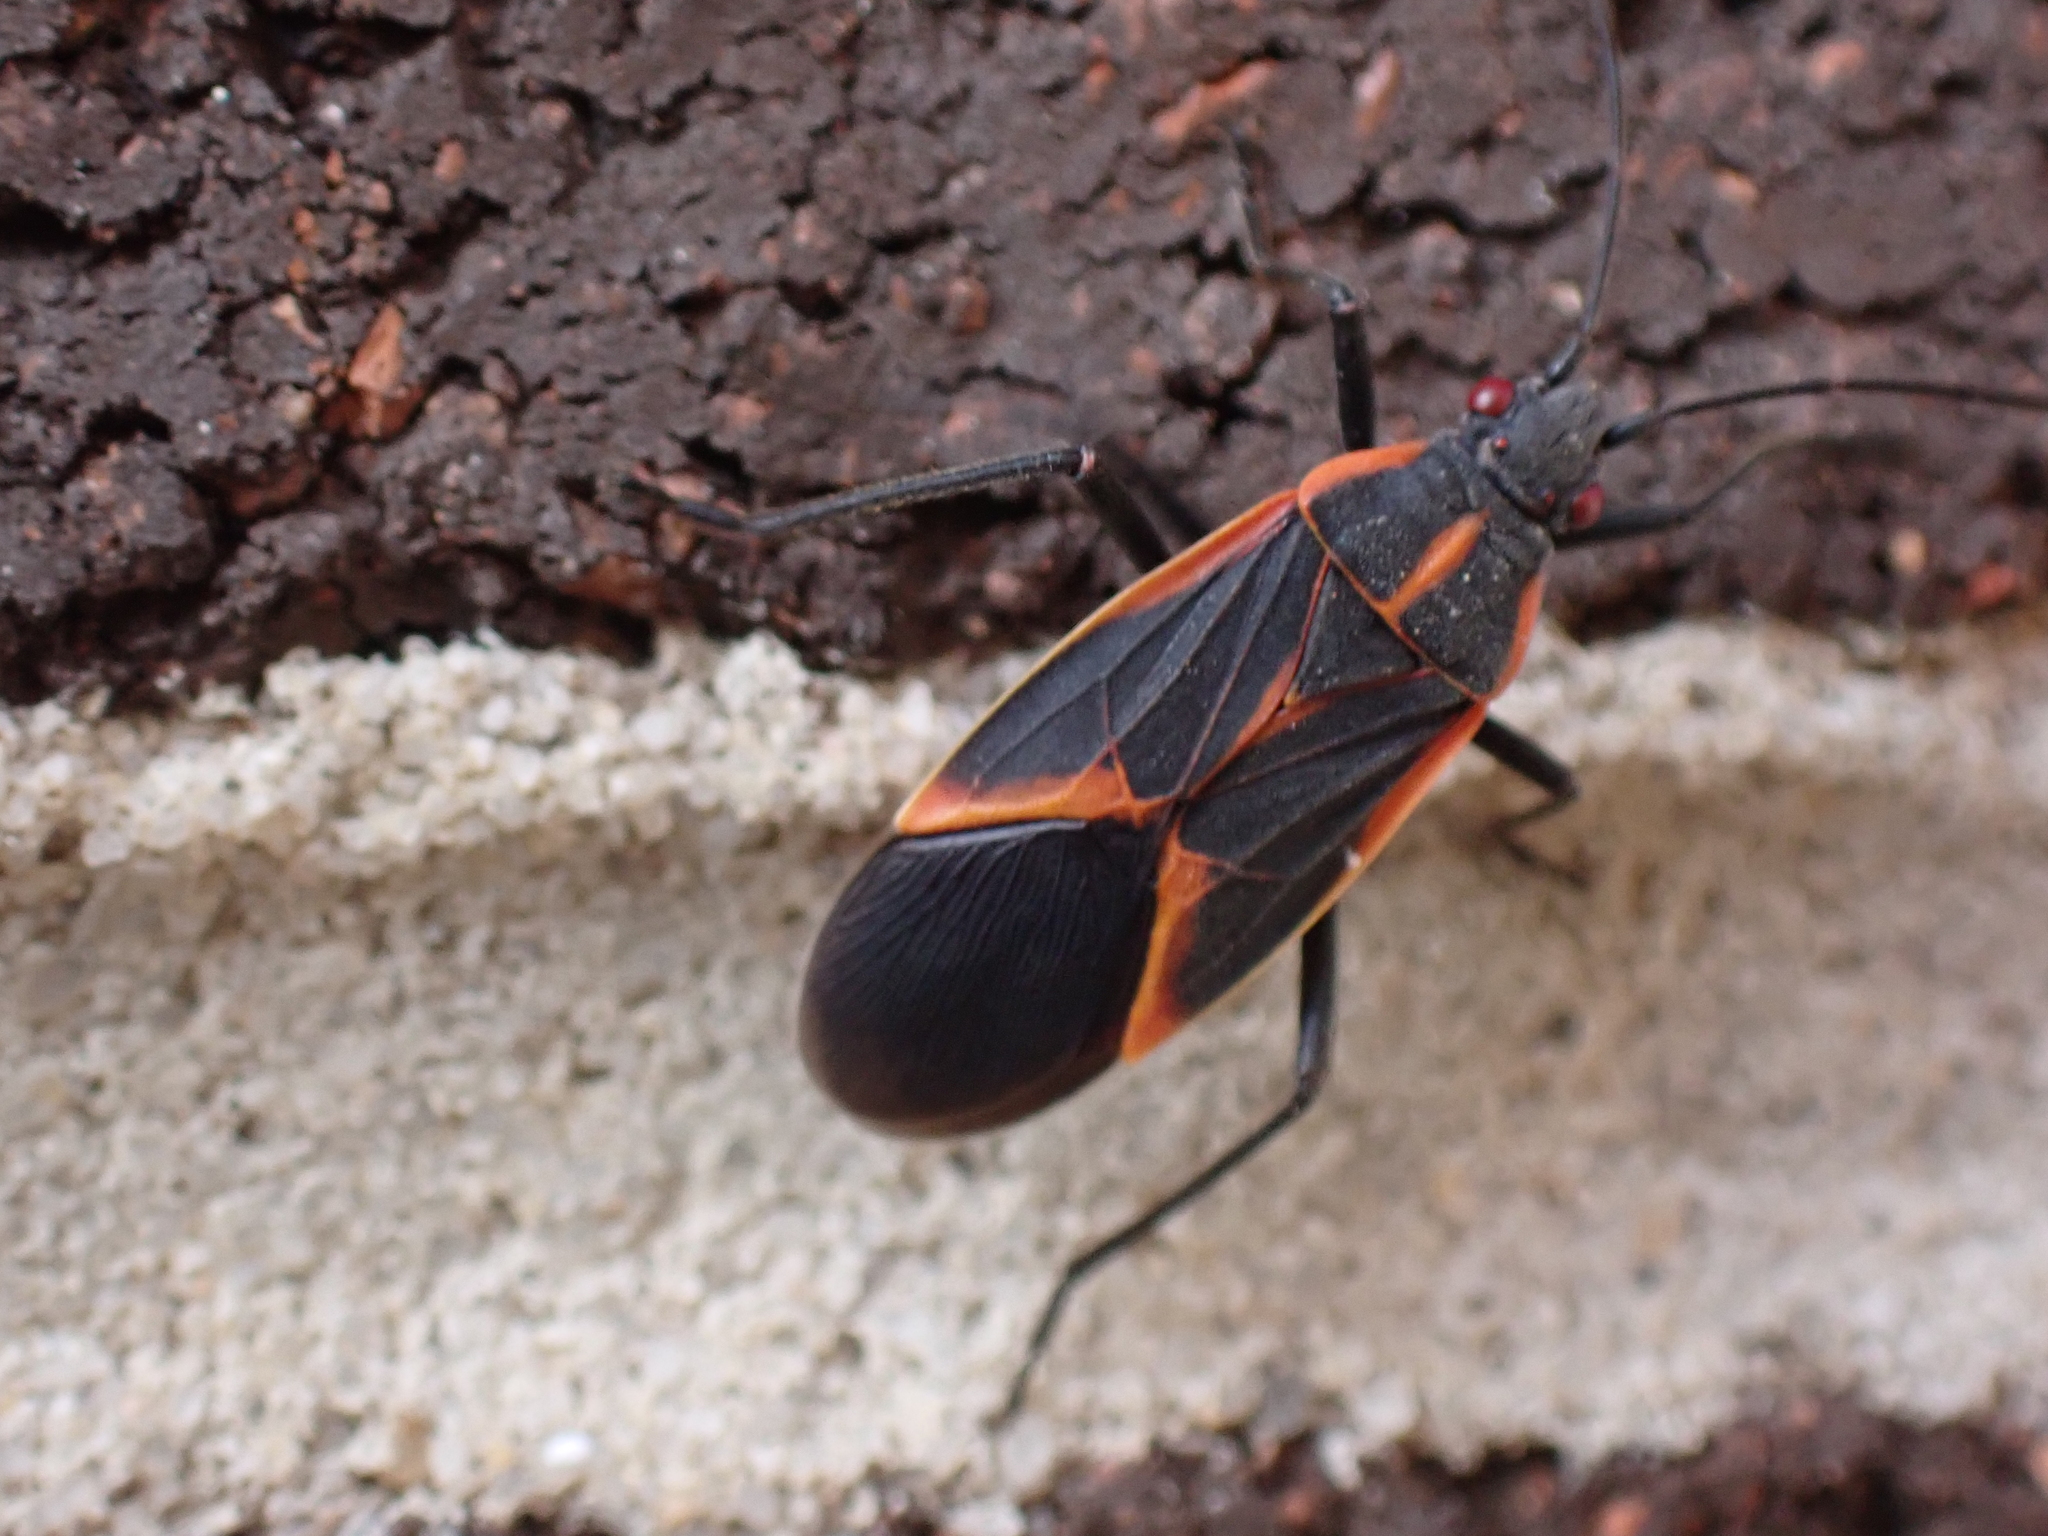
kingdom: Animalia
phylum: Arthropoda
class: Insecta
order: Hemiptera
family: Rhopalidae
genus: Boisea
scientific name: Boisea trivittata
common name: Boxelder bug
